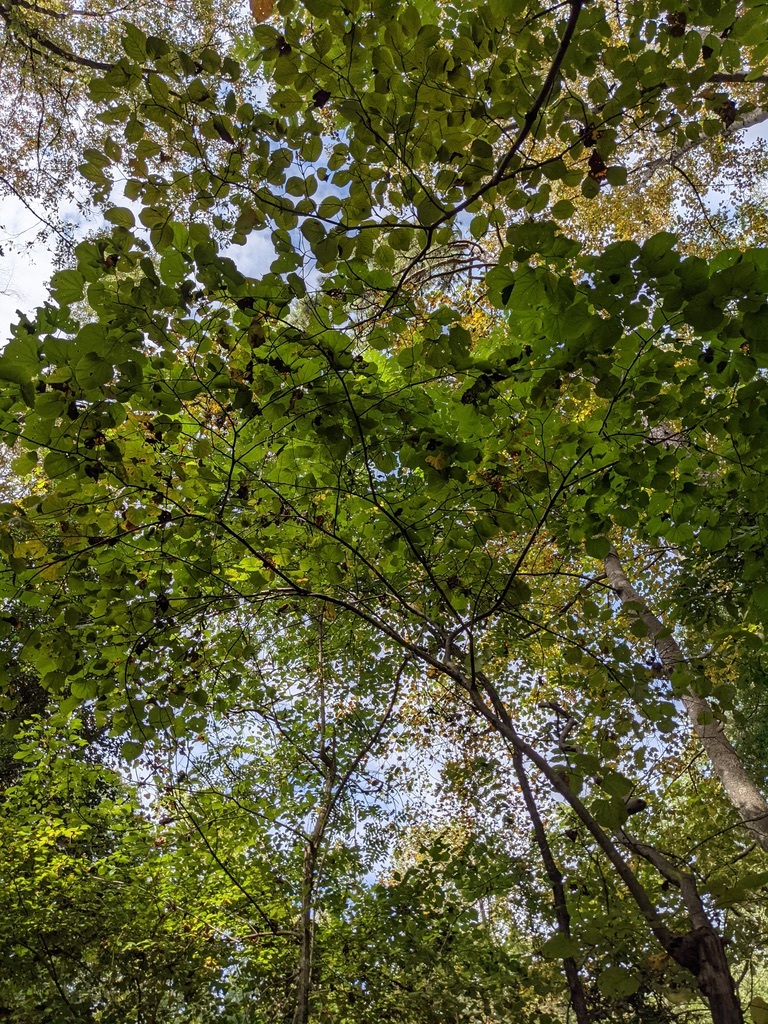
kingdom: Plantae
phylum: Tracheophyta
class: Magnoliopsida
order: Fabales
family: Fabaceae
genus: Cercis
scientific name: Cercis canadensis
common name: Eastern redbud
